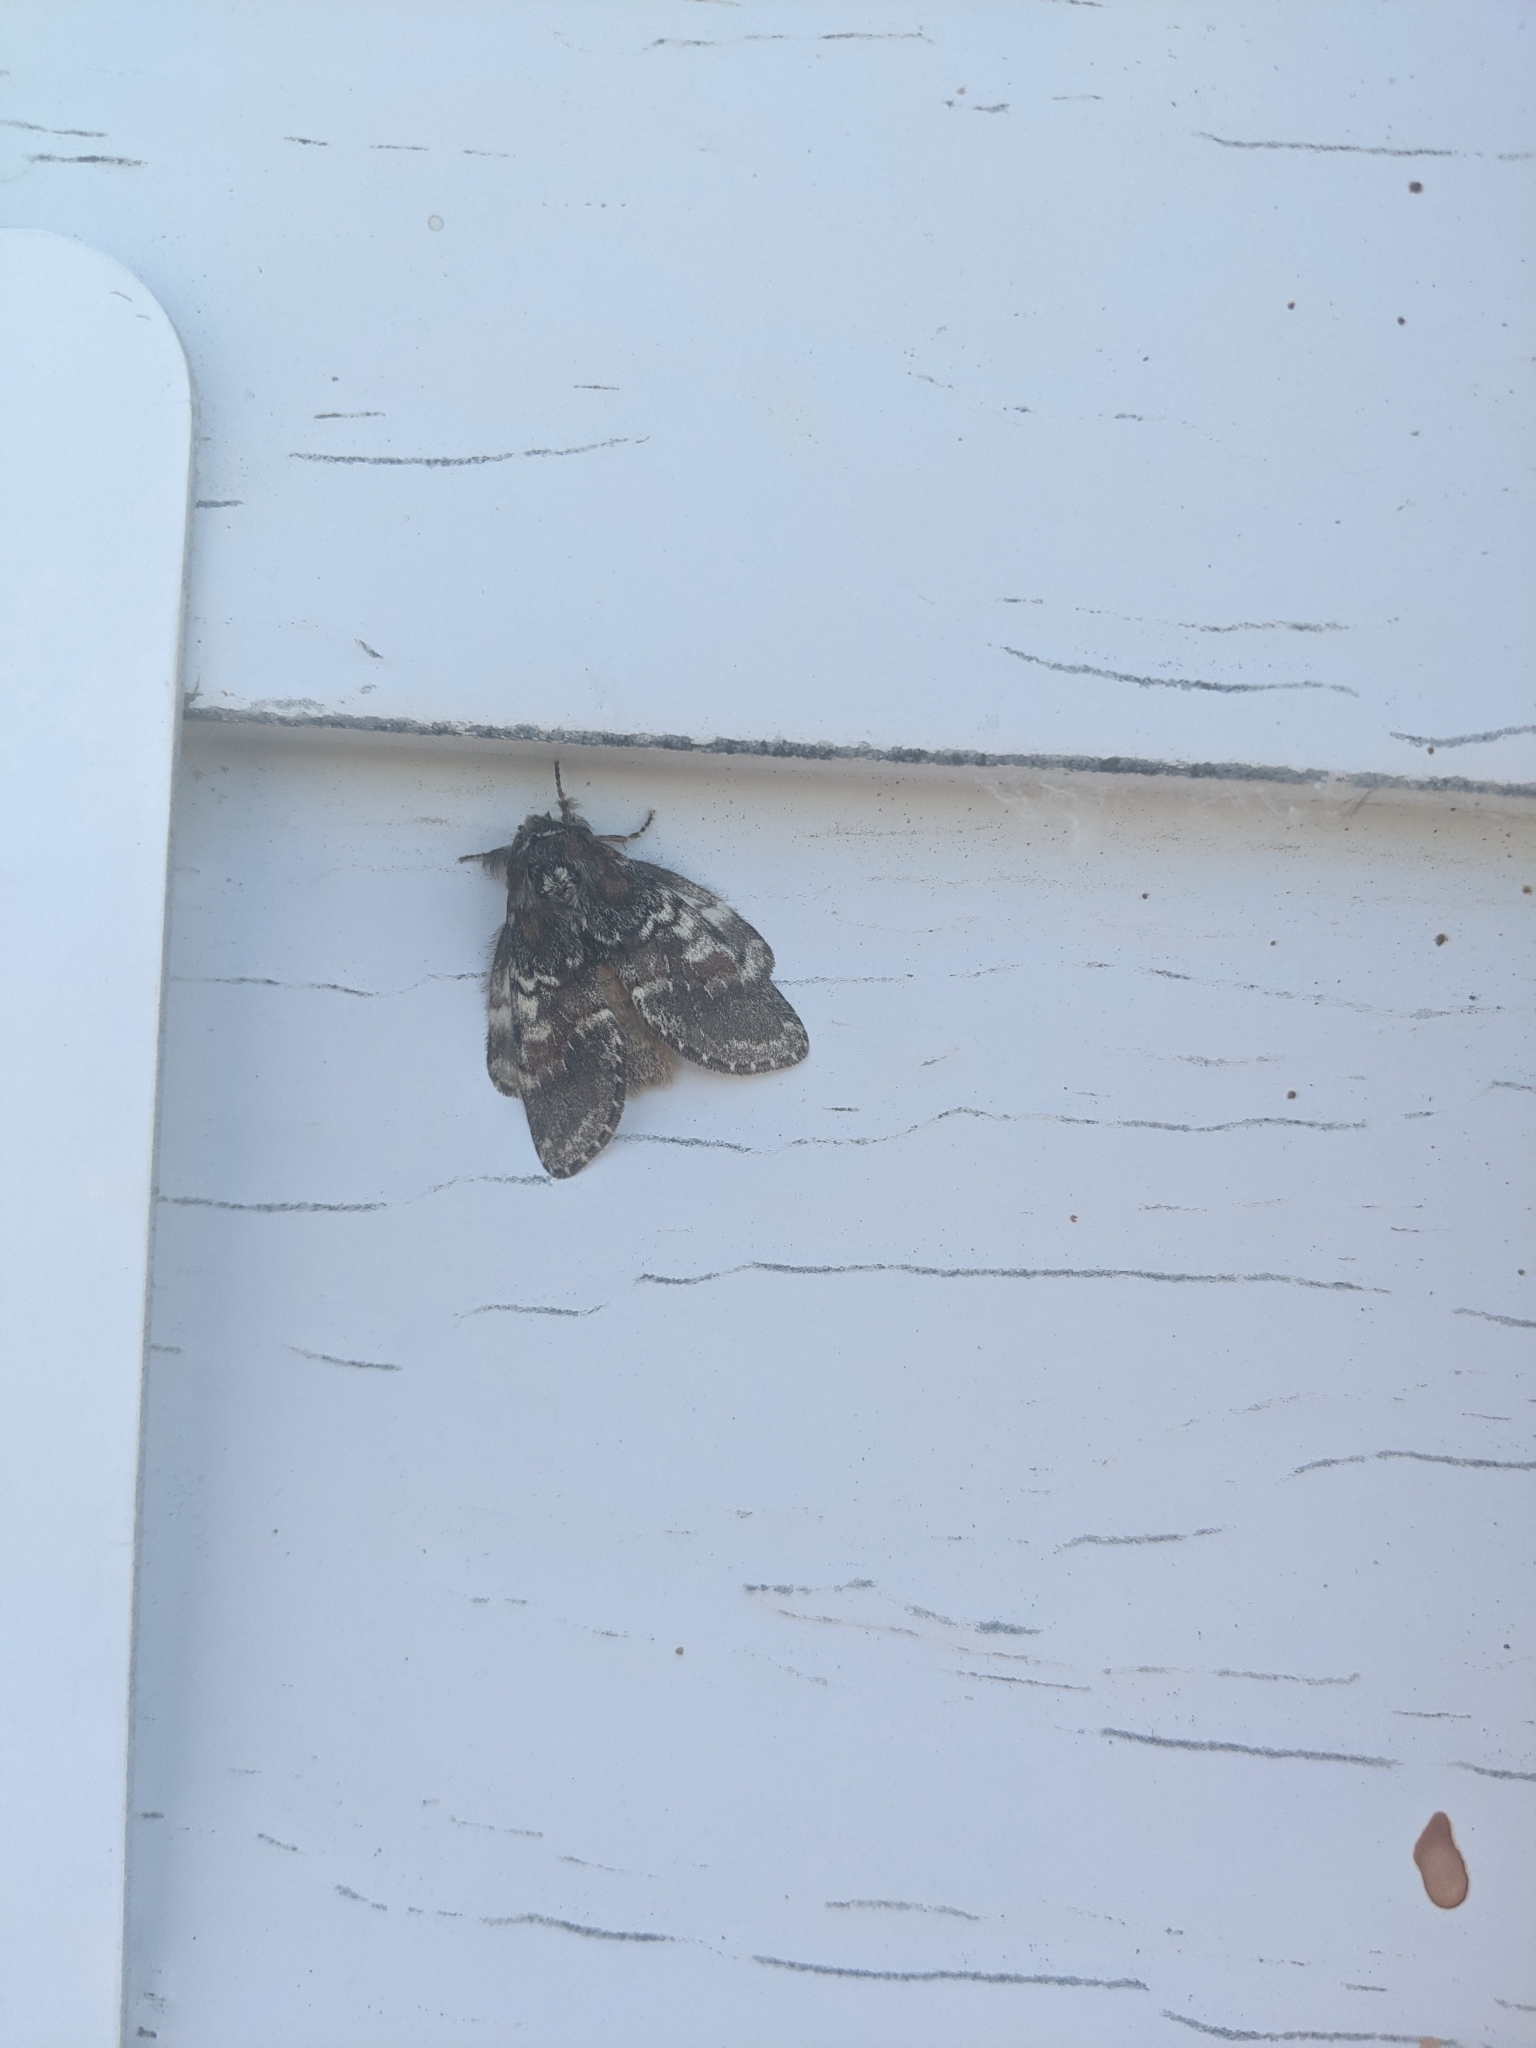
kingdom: Animalia
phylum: Arthropoda
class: Insecta
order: Lepidoptera
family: Notodontidae
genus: Peridea
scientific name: Peridea ferruginea
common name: Chocolate prominent
